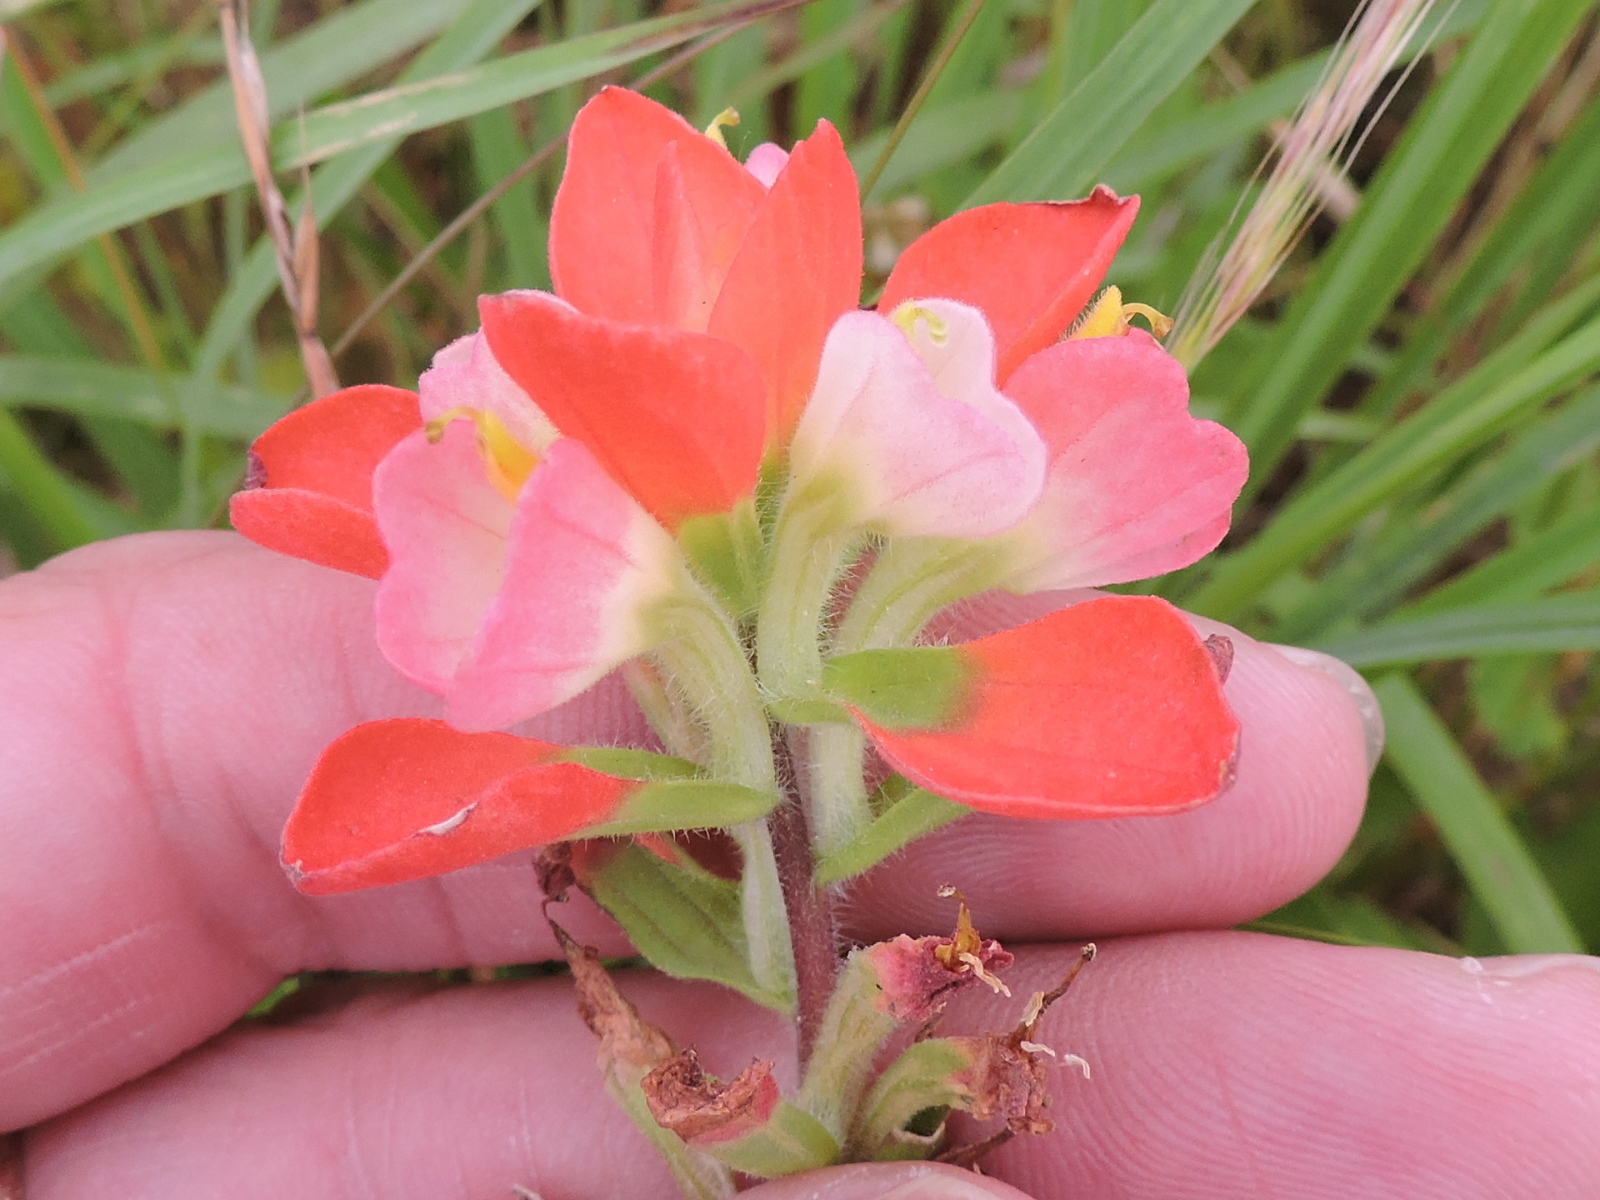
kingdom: Plantae
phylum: Tracheophyta
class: Magnoliopsida
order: Lamiales
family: Orobanchaceae
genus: Castilleja
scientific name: Castilleja indivisa
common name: Texas paintbrush
